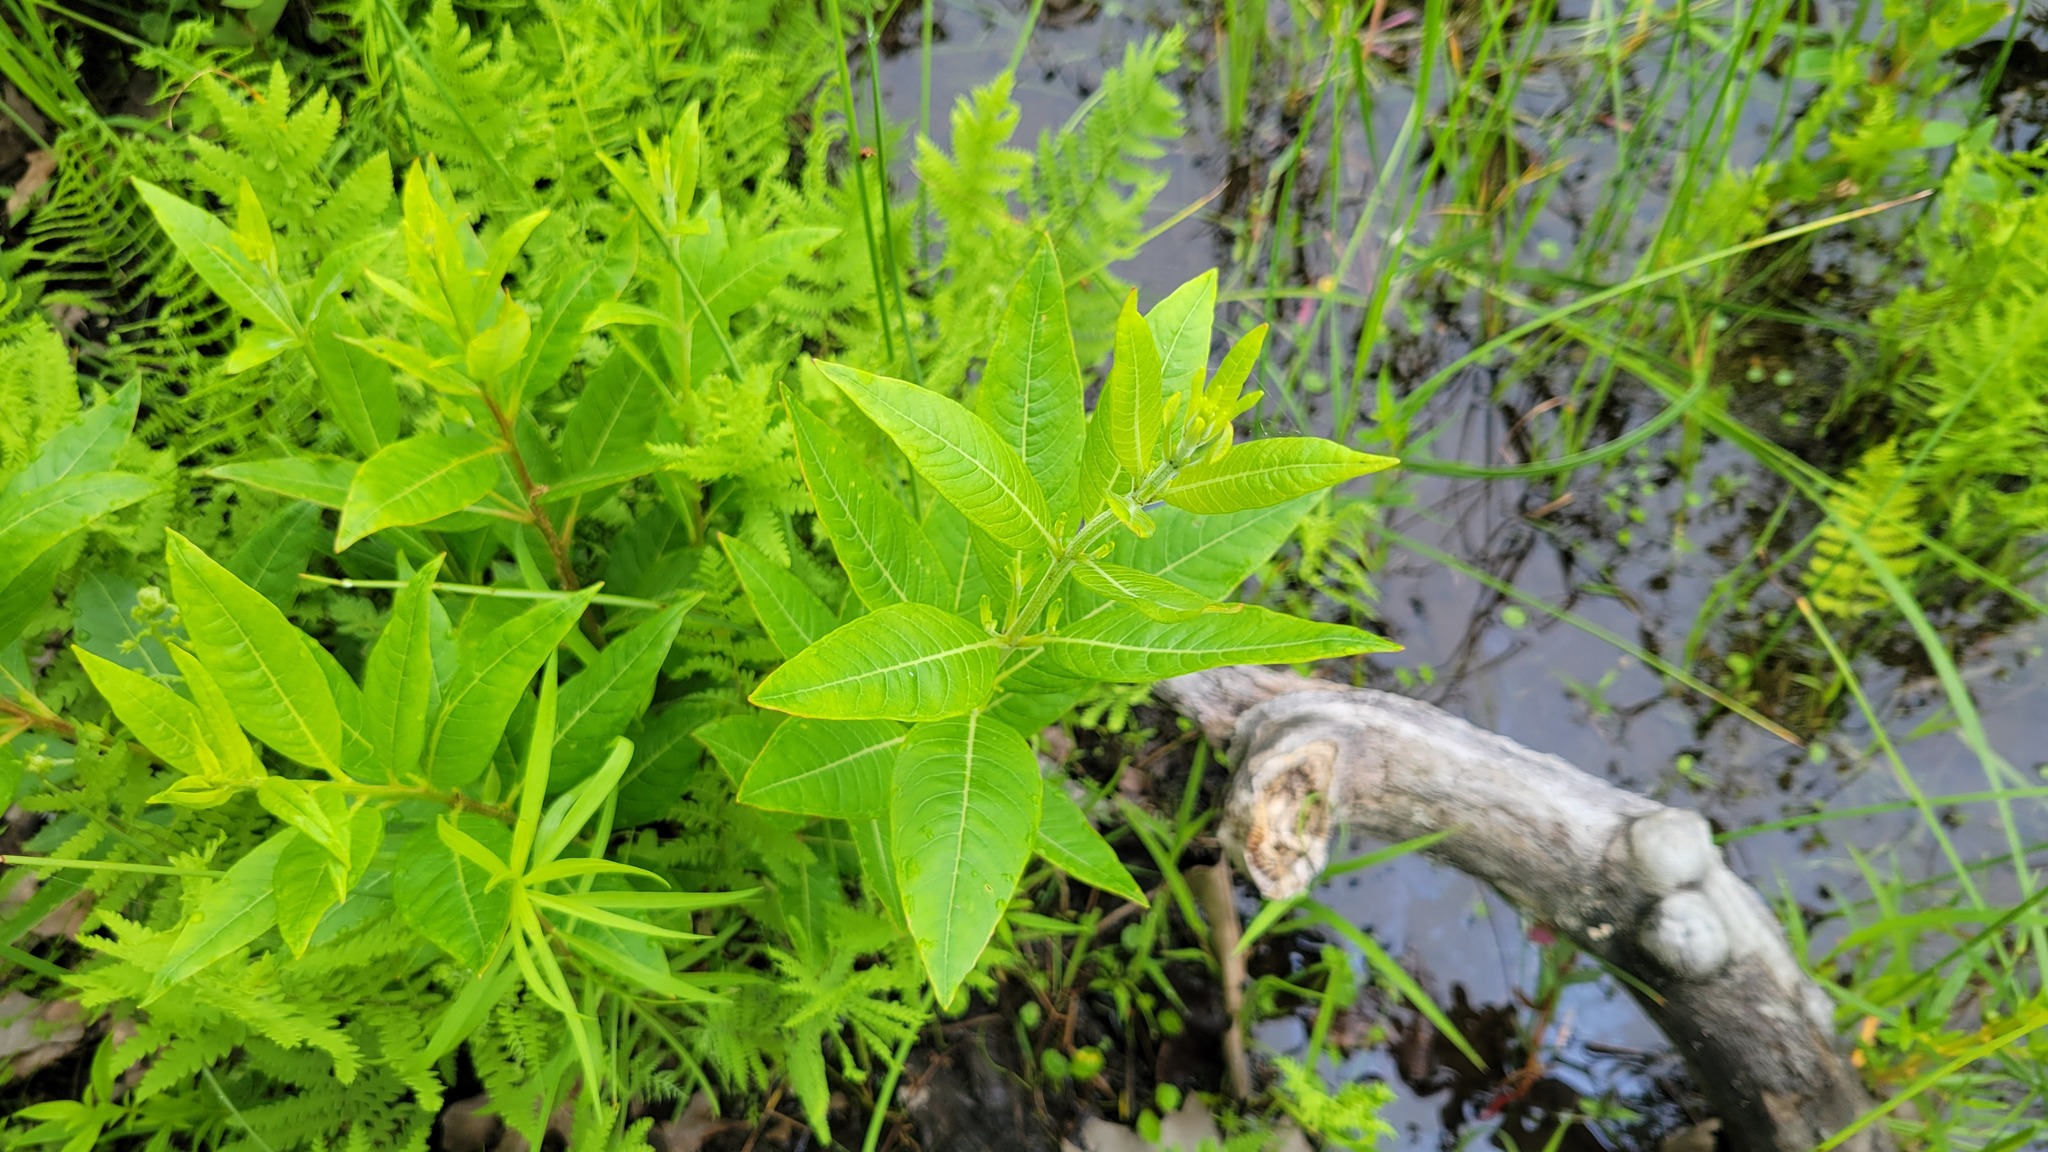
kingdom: Plantae
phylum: Tracheophyta
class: Magnoliopsida
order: Myrtales
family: Lythraceae
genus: Decodon
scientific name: Decodon verticillatus
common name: Hairy swamp loosestrife
